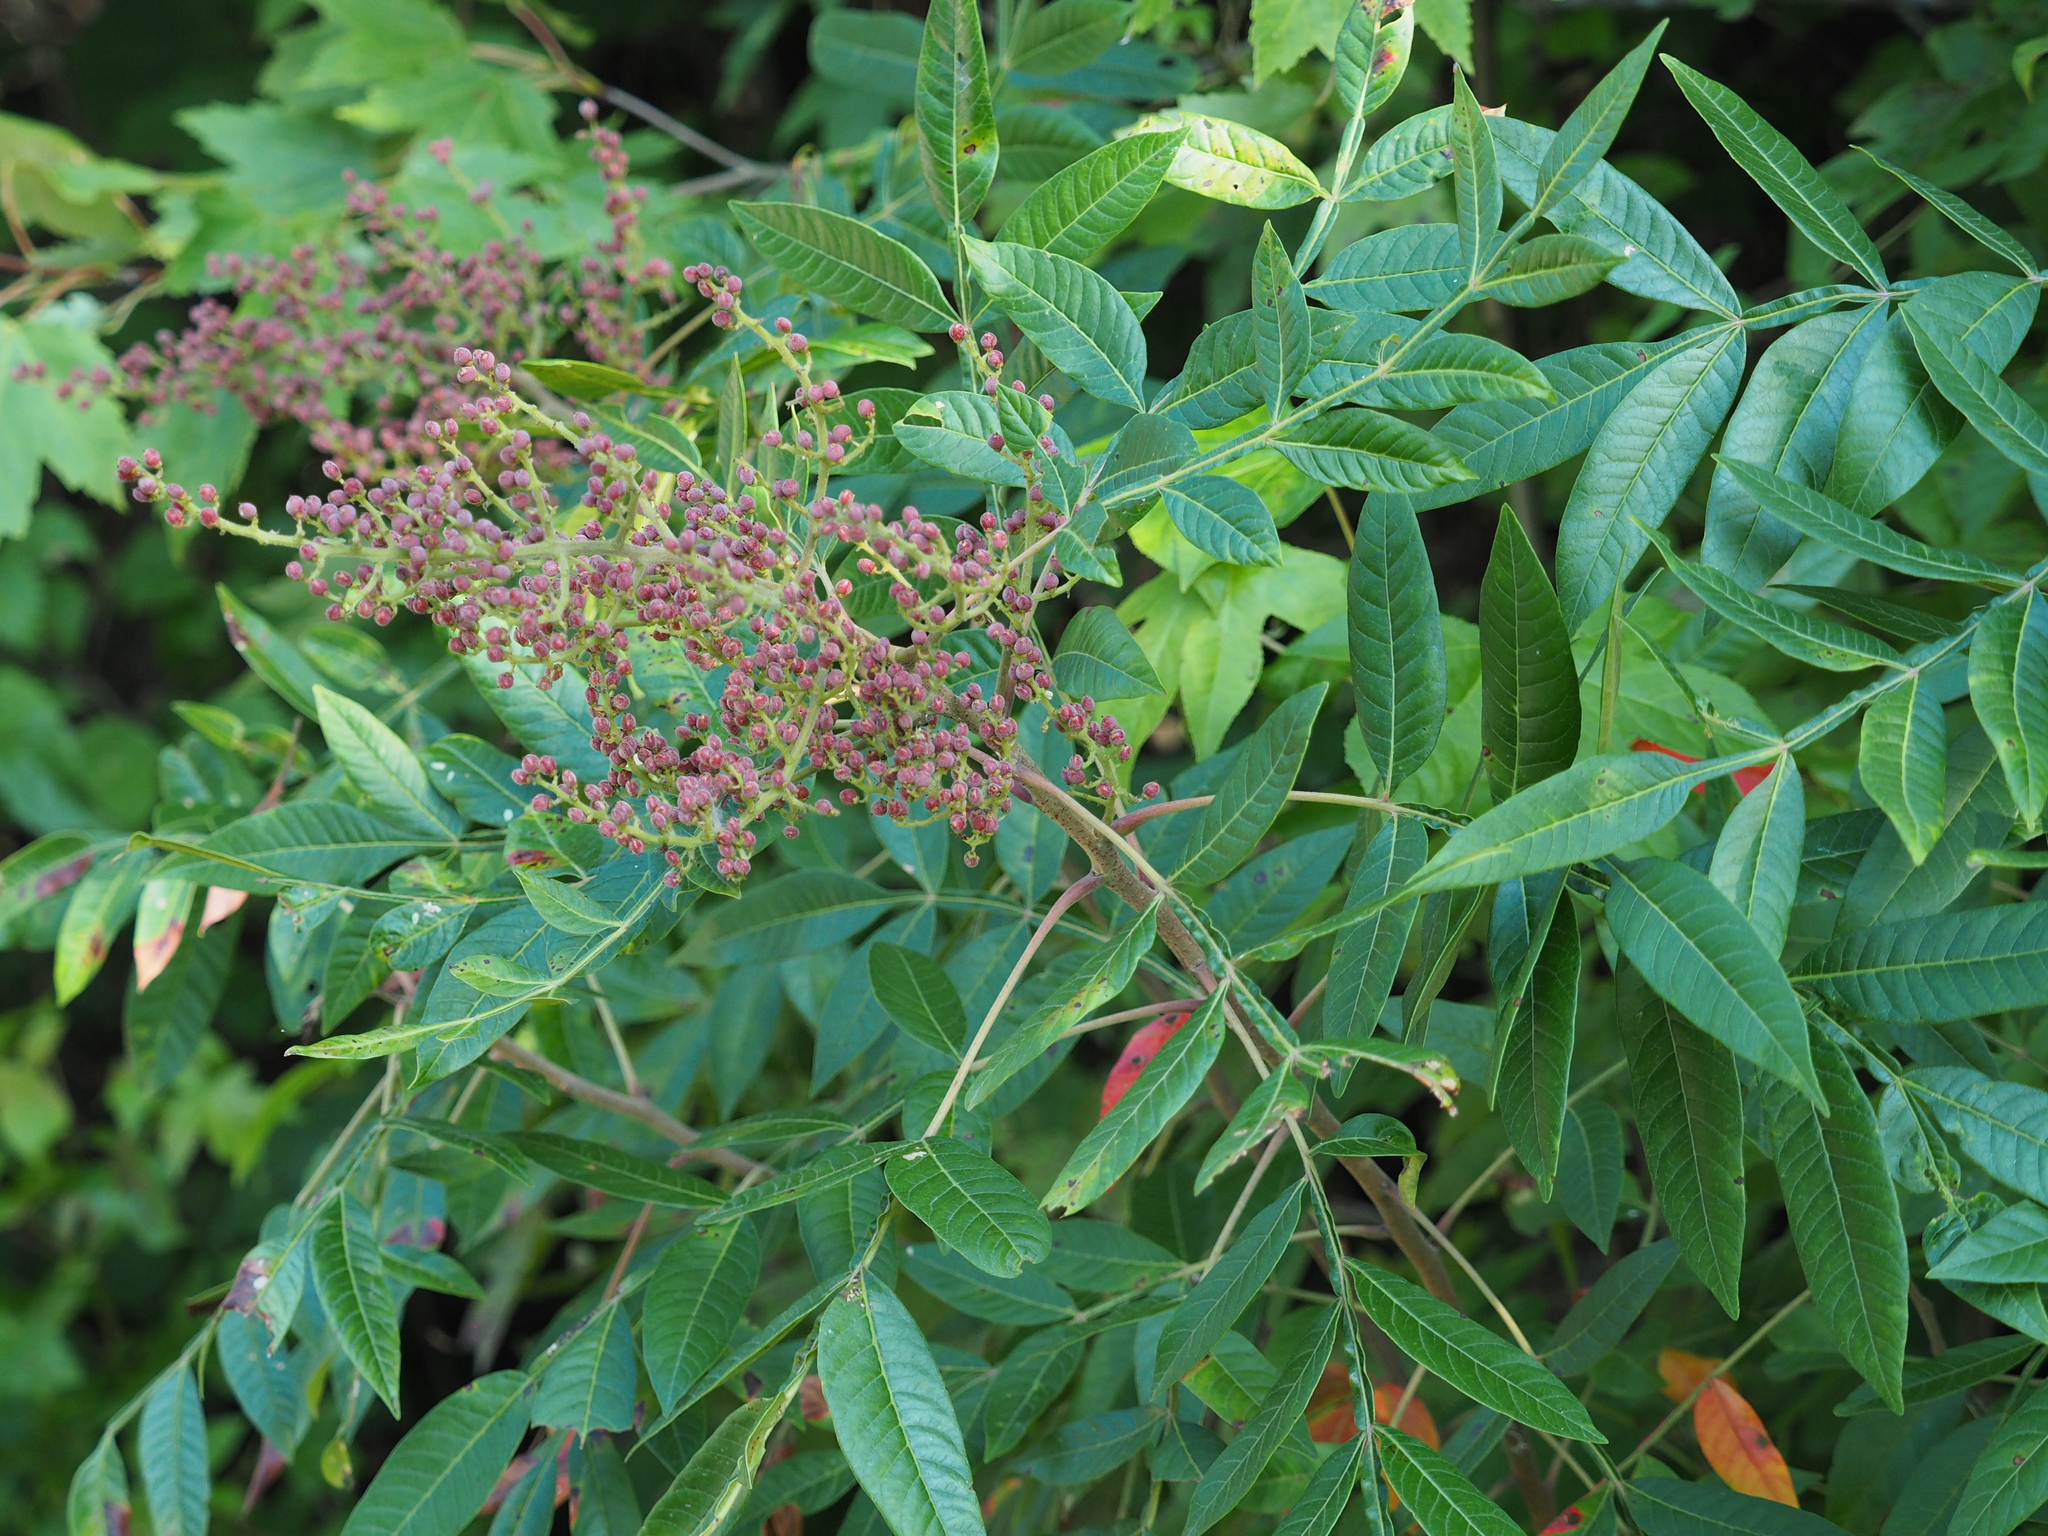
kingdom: Plantae
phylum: Tracheophyta
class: Magnoliopsida
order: Sapindales
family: Anacardiaceae
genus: Rhus
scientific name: Rhus copallina
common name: Shining sumac
